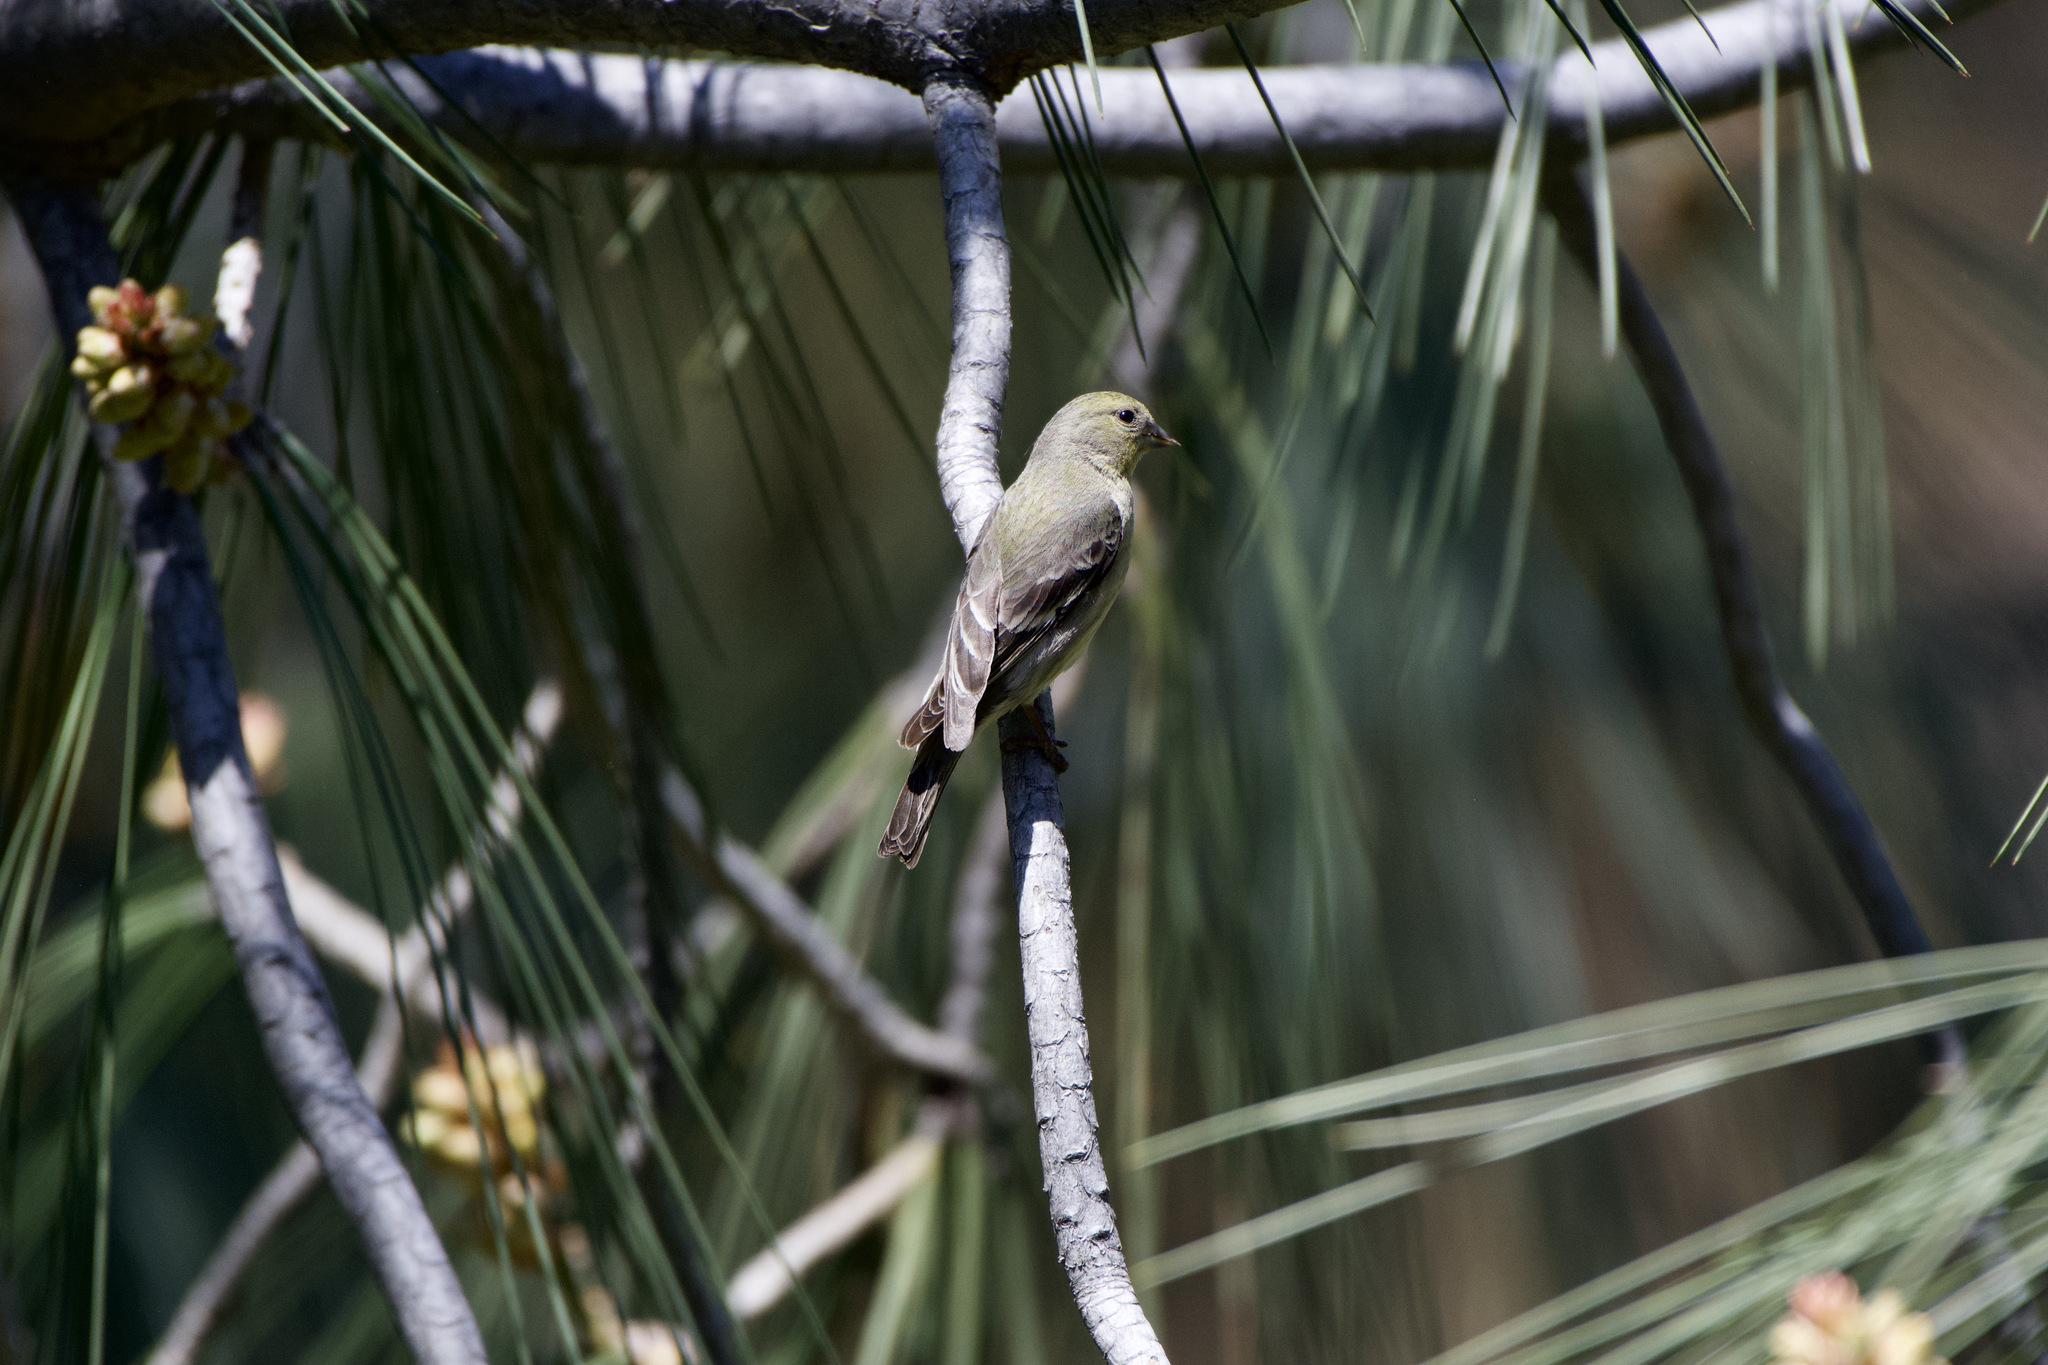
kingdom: Animalia
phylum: Chordata
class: Aves
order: Passeriformes
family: Fringillidae
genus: Spinus
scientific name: Spinus psaltria
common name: Lesser goldfinch
